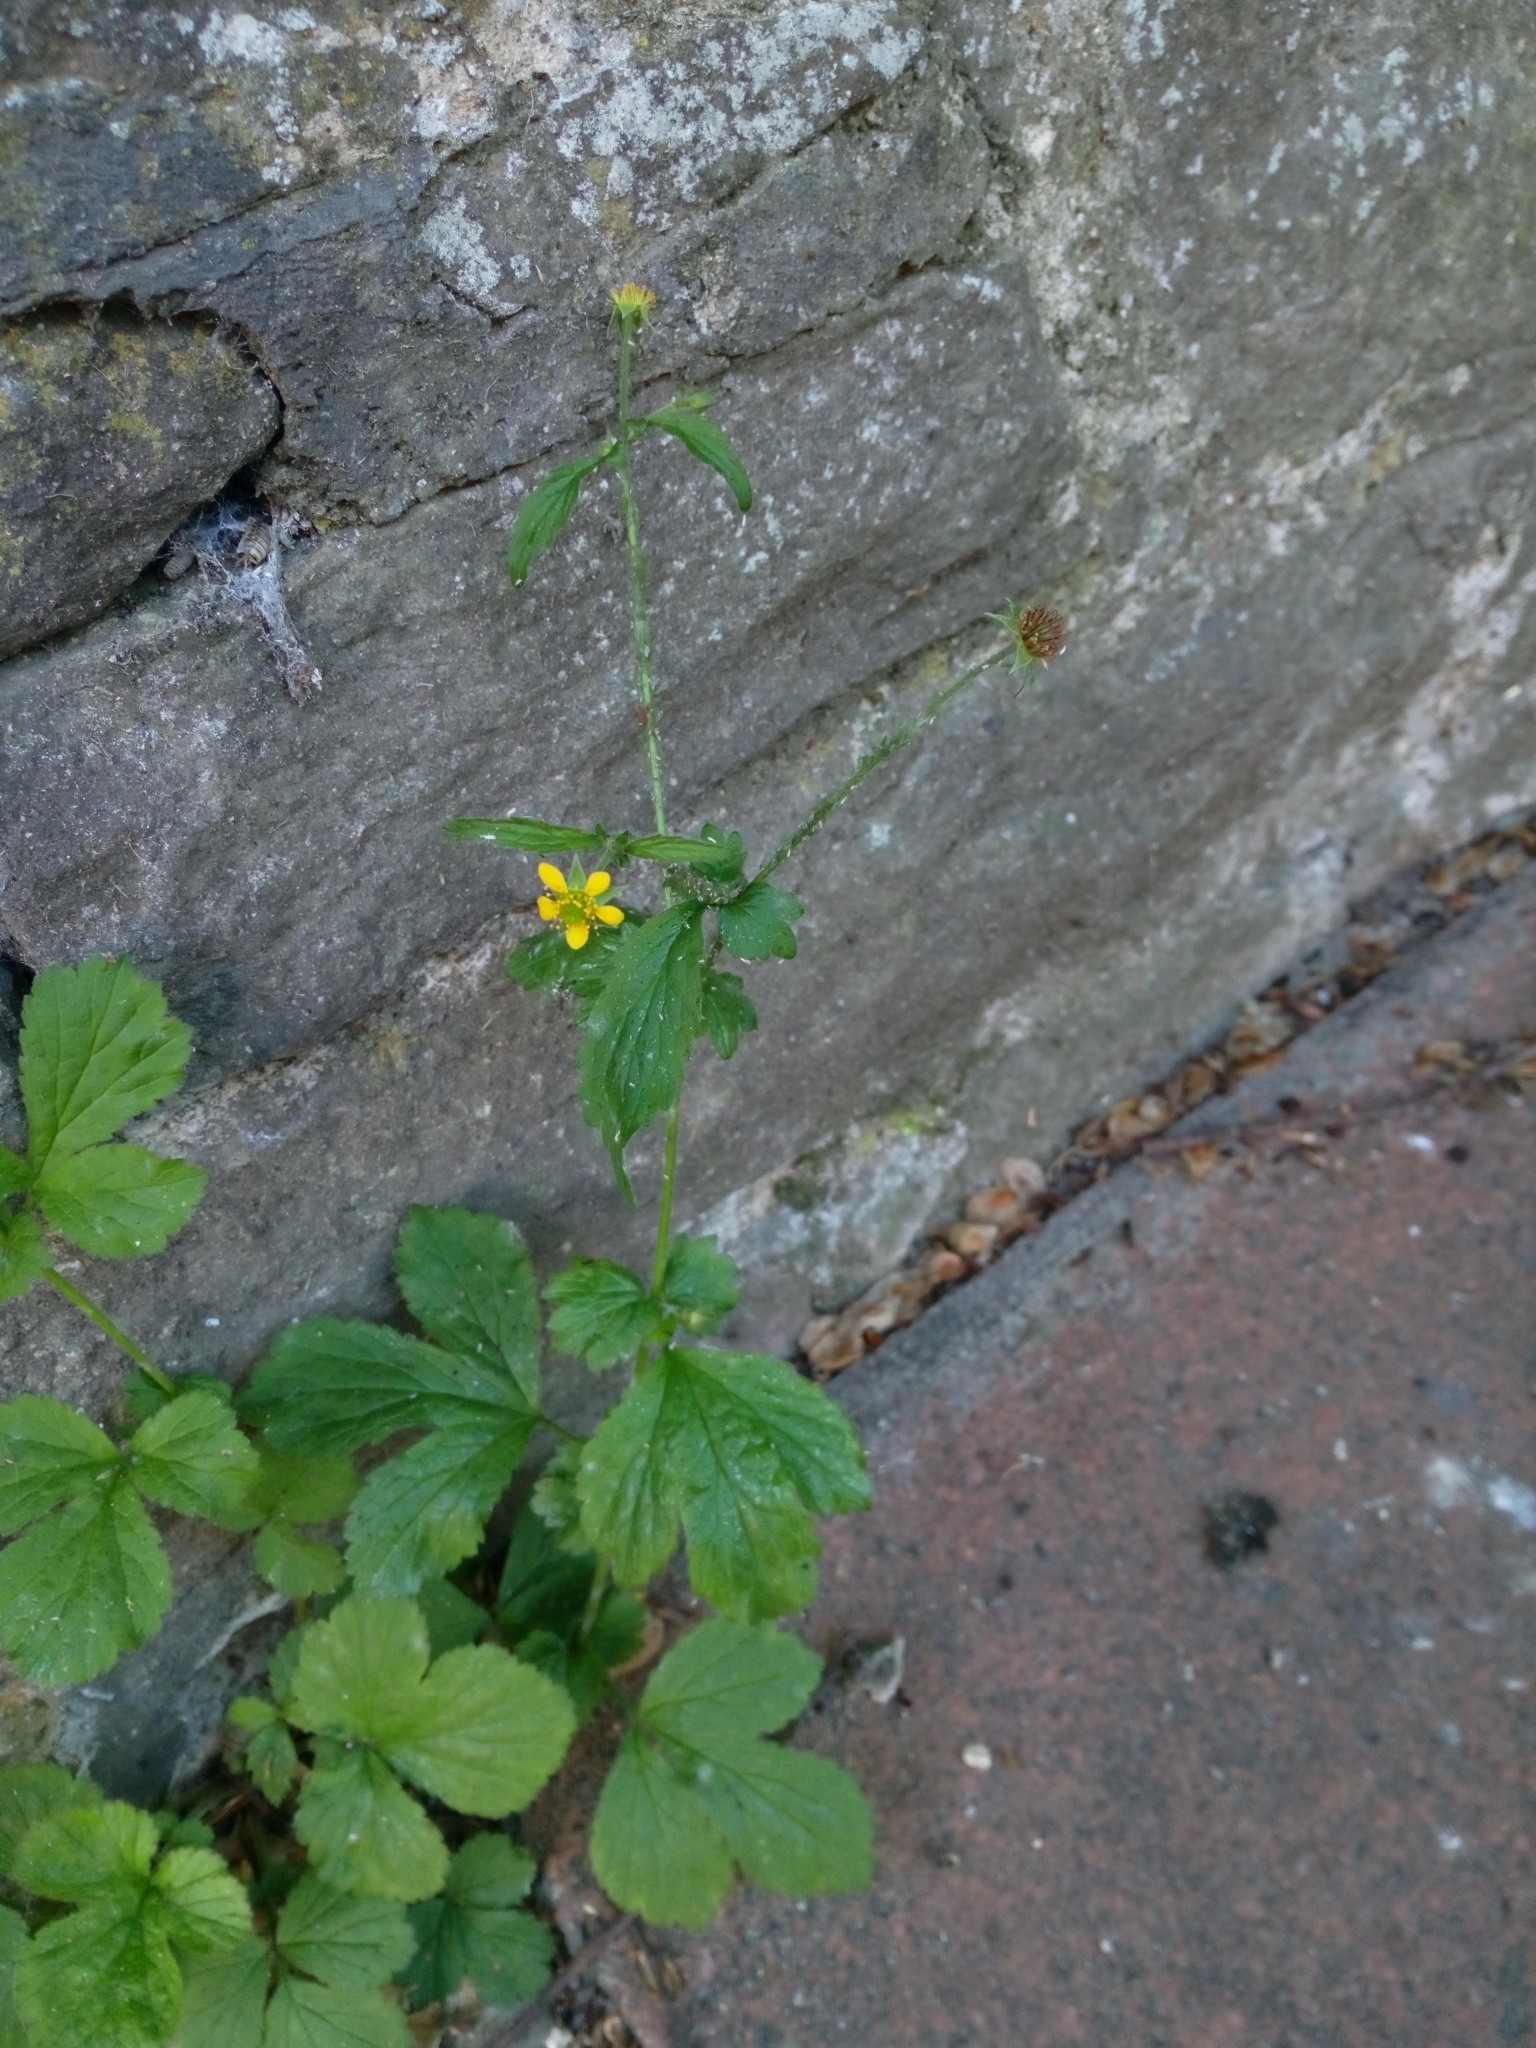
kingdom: Plantae
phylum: Tracheophyta
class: Magnoliopsida
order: Rosales
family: Rosaceae
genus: Geum
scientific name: Geum urbanum
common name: Wood avens
